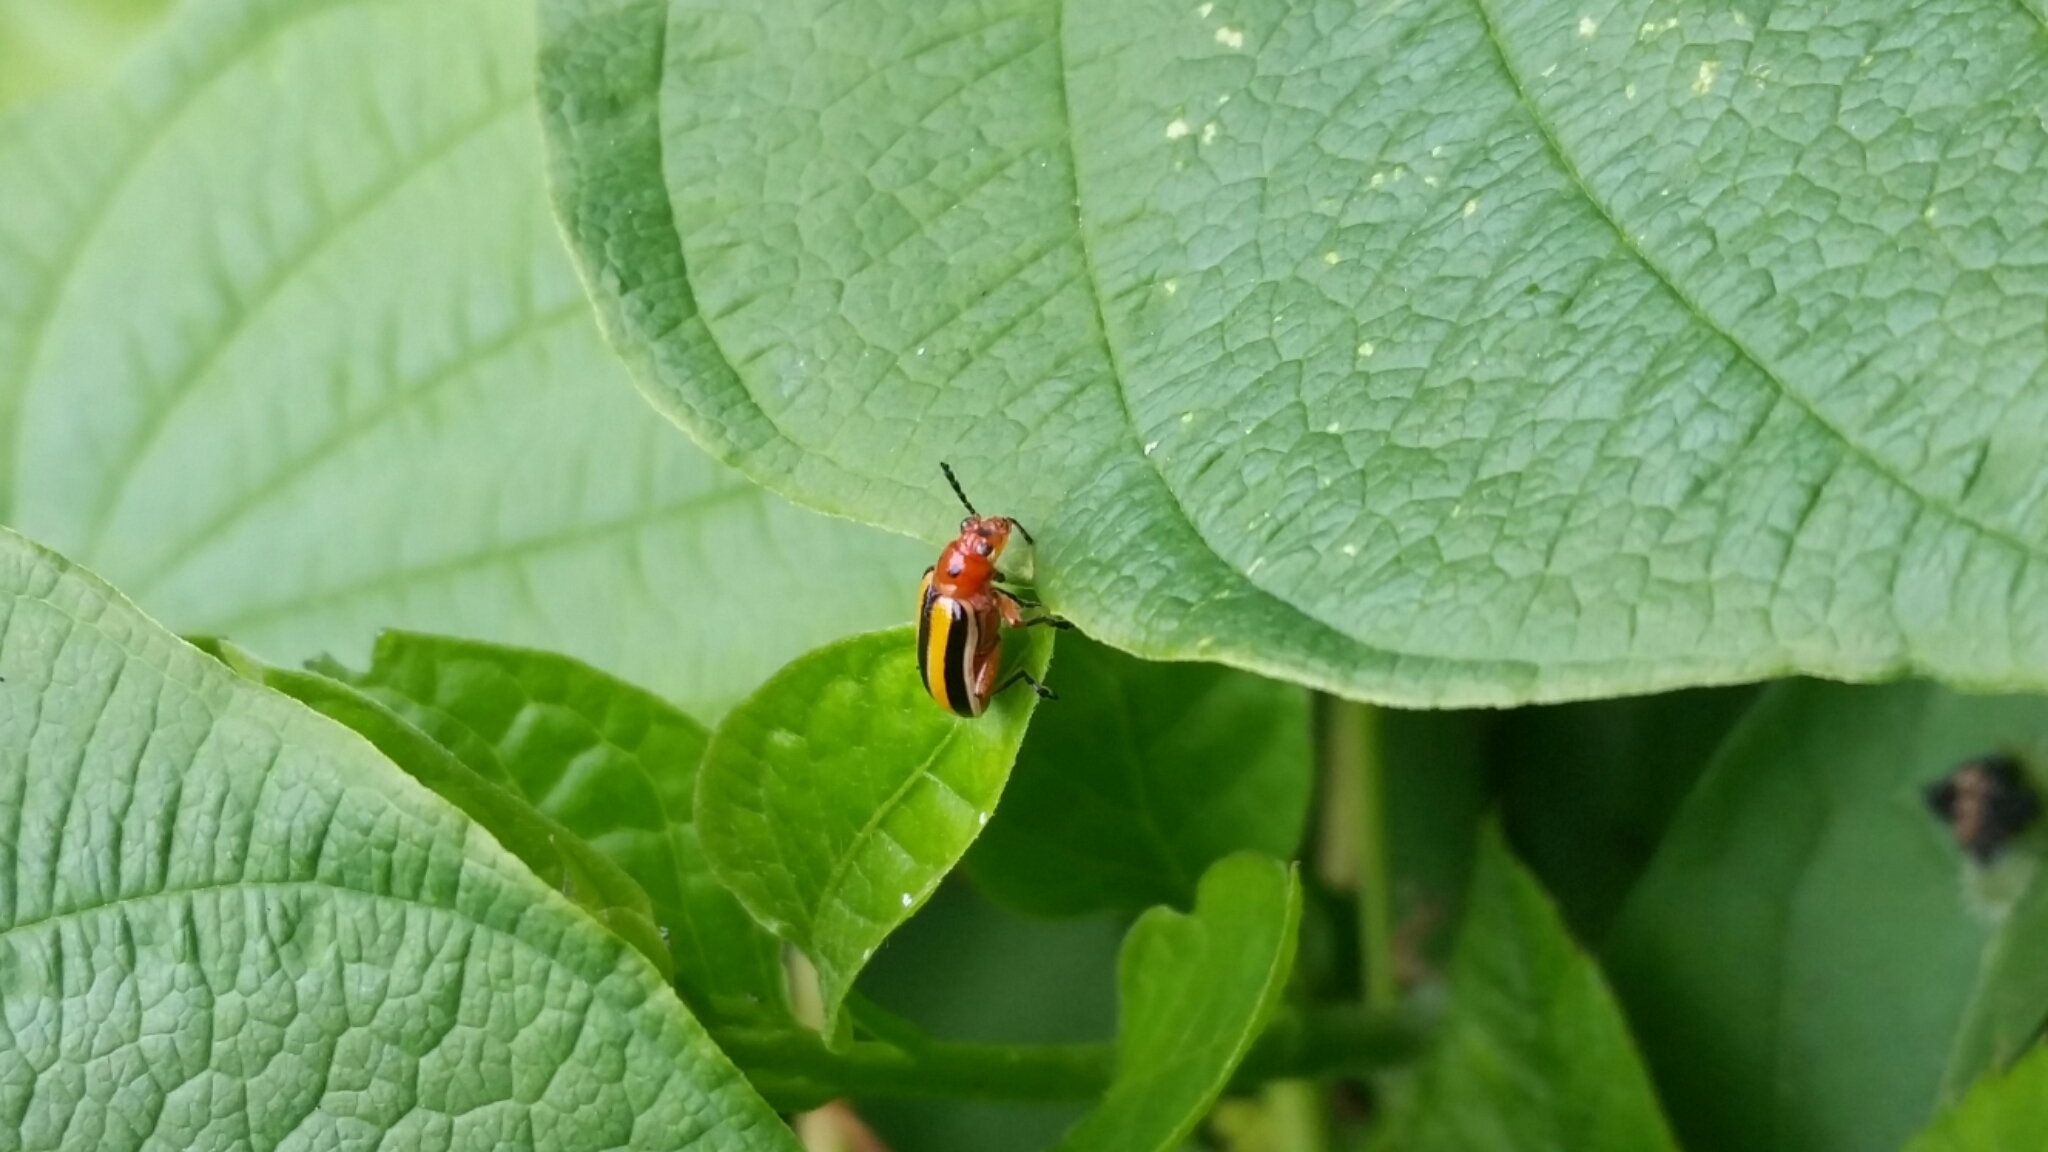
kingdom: Animalia
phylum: Arthropoda
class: Insecta
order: Coleoptera
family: Chrysomelidae
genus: Lema
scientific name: Lema daturaphila
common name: Leaf beetle
